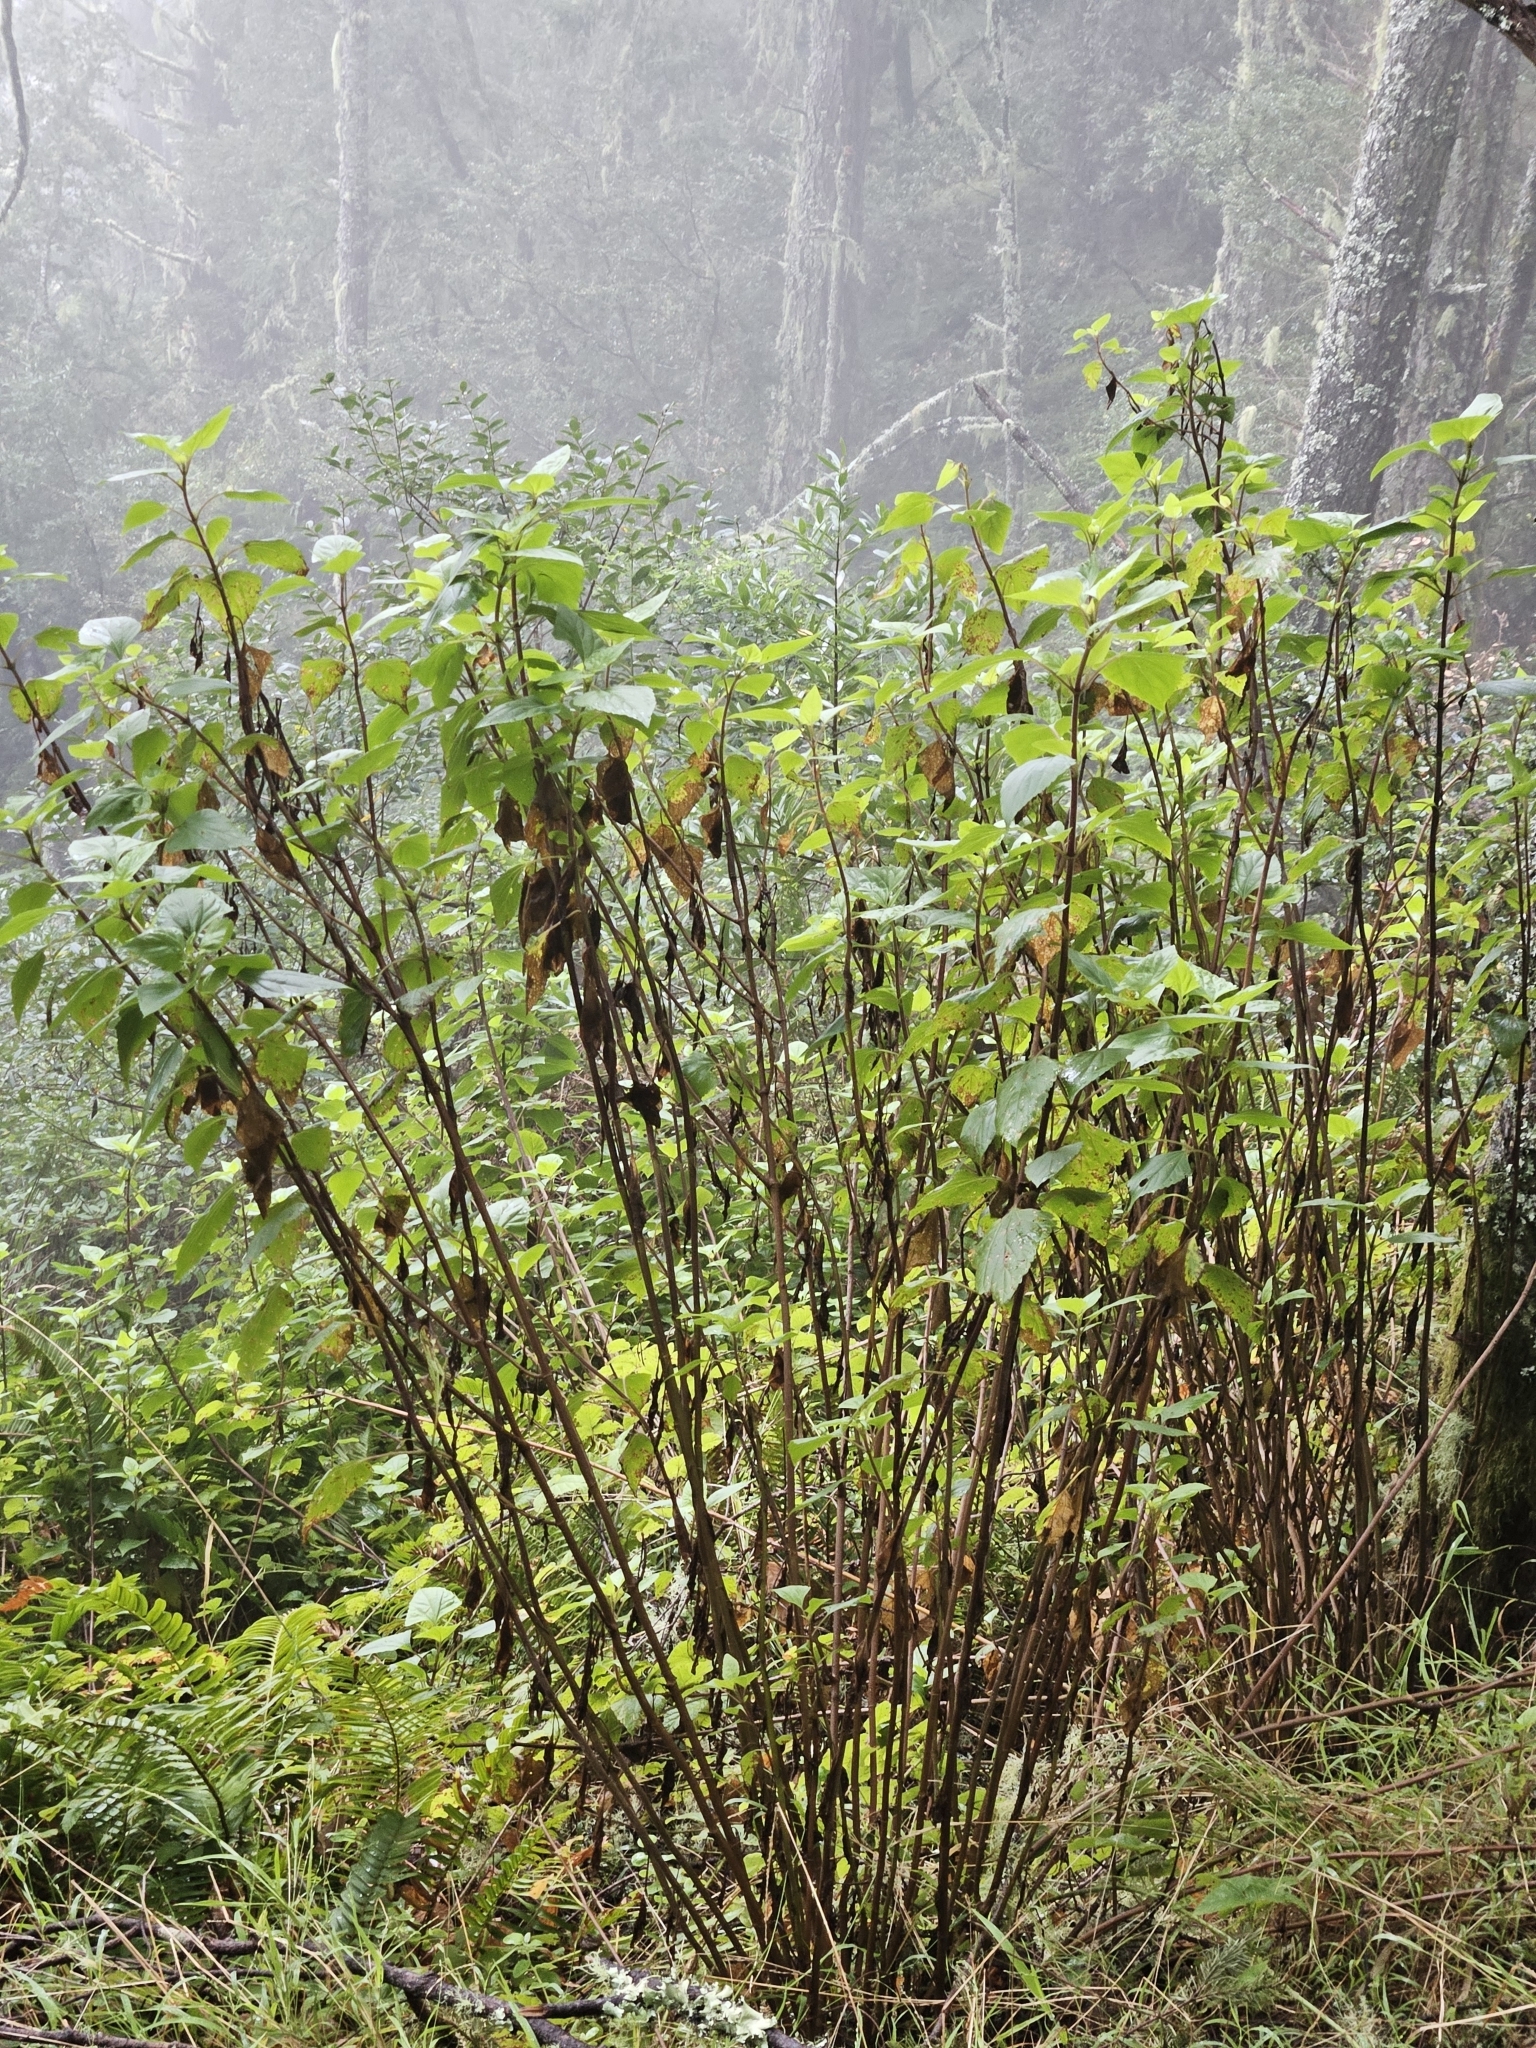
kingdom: Plantae
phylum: Tracheophyta
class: Magnoliopsida
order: Asterales
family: Asteraceae
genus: Ageratina
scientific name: Ageratina adenophora
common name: Sticky snakeroot
